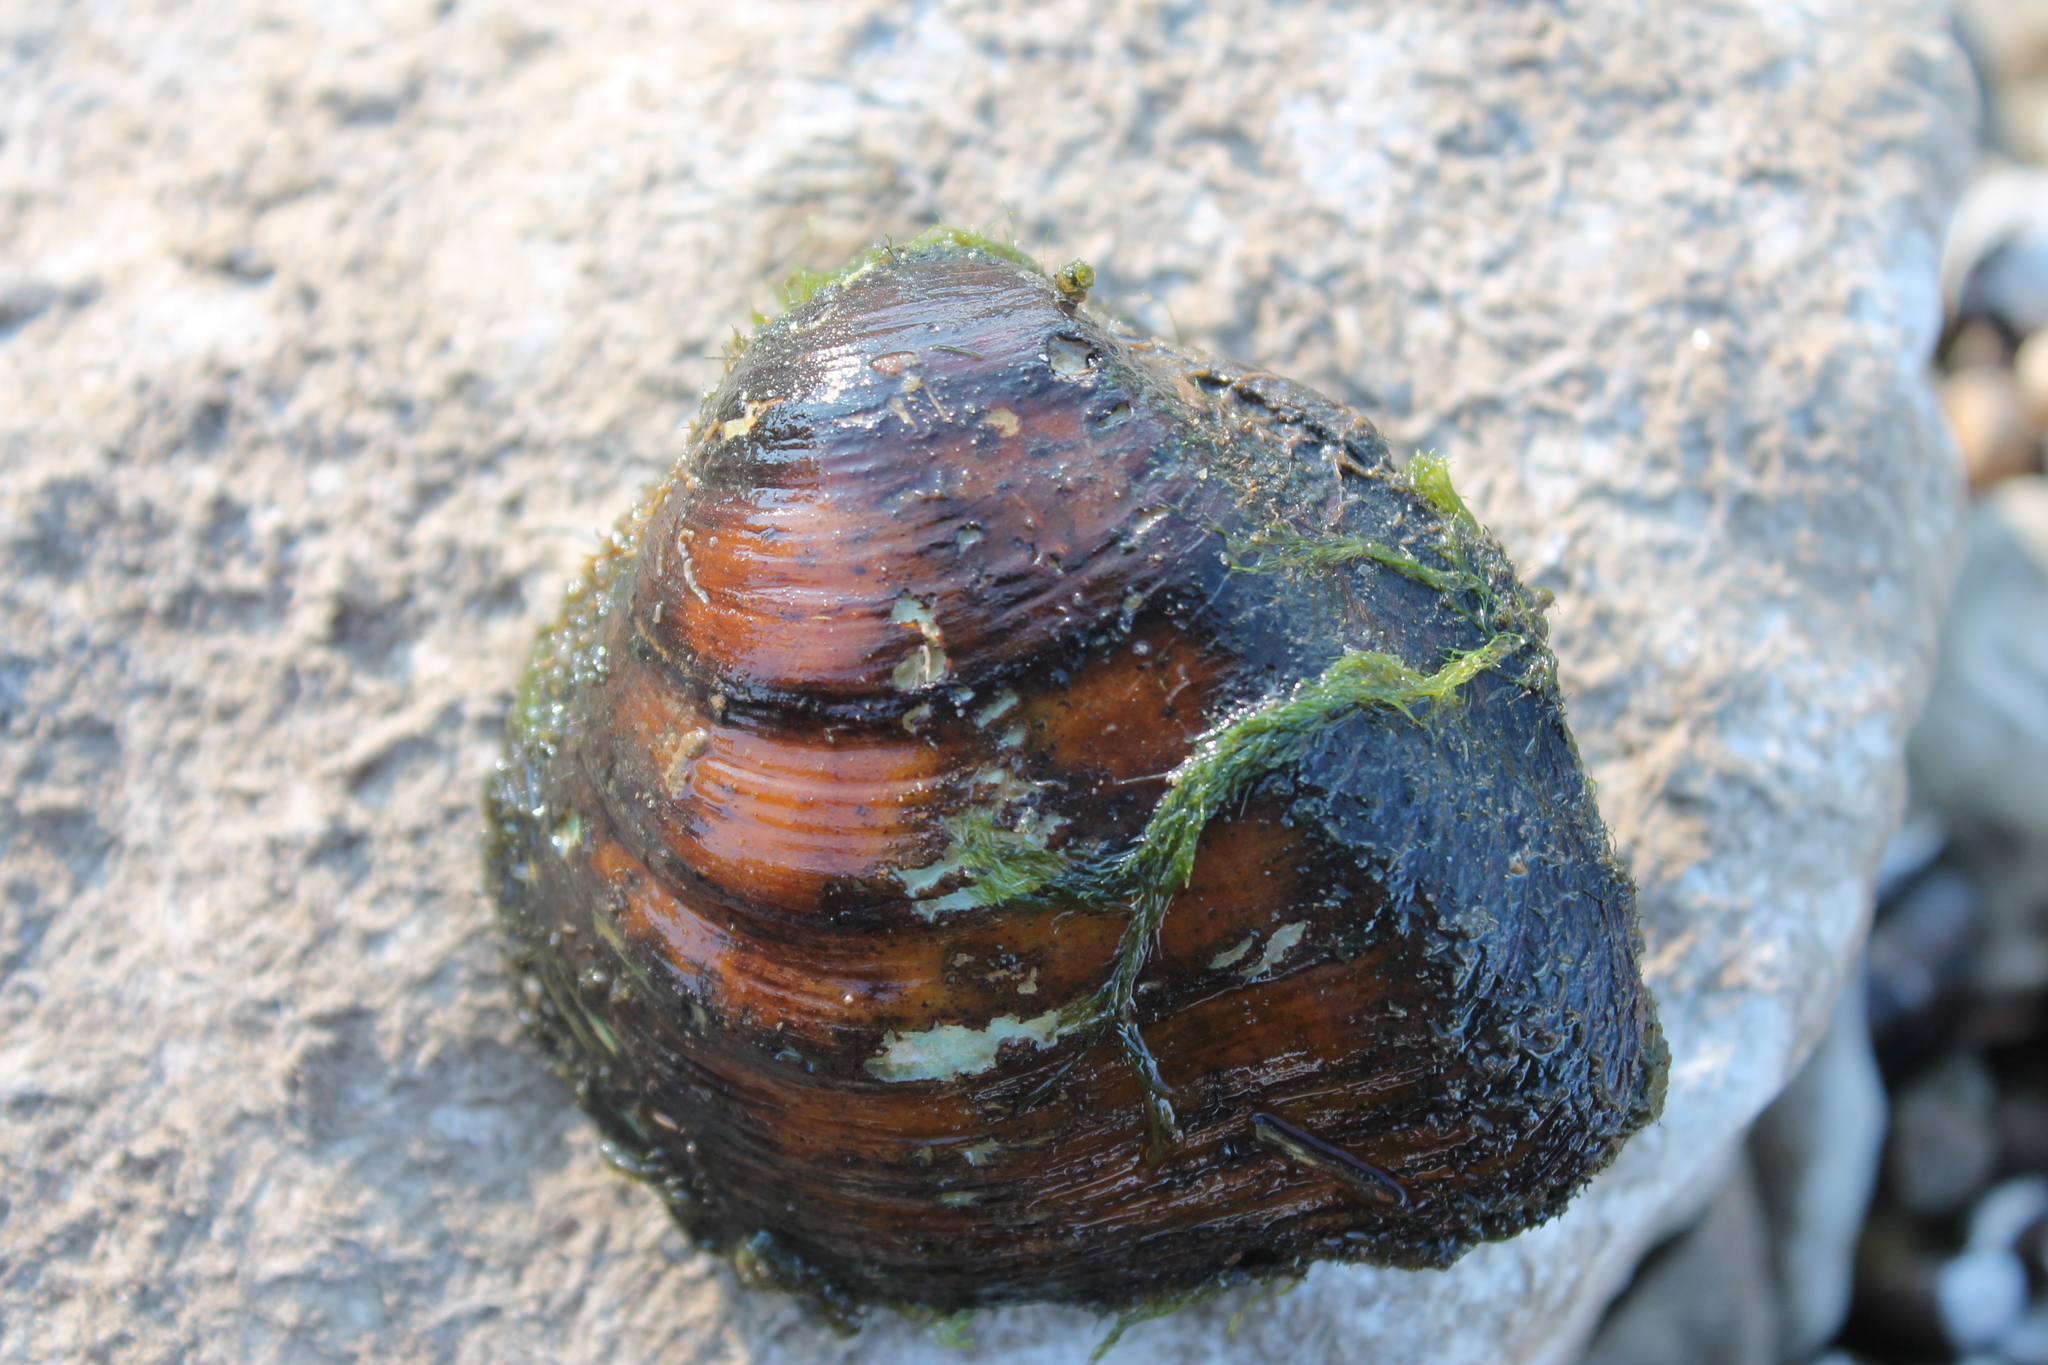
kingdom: Animalia
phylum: Mollusca
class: Bivalvia
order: Unionida
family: Unionidae
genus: Fusconaia
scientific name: Fusconaia flava
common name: Wabash pigtoe
